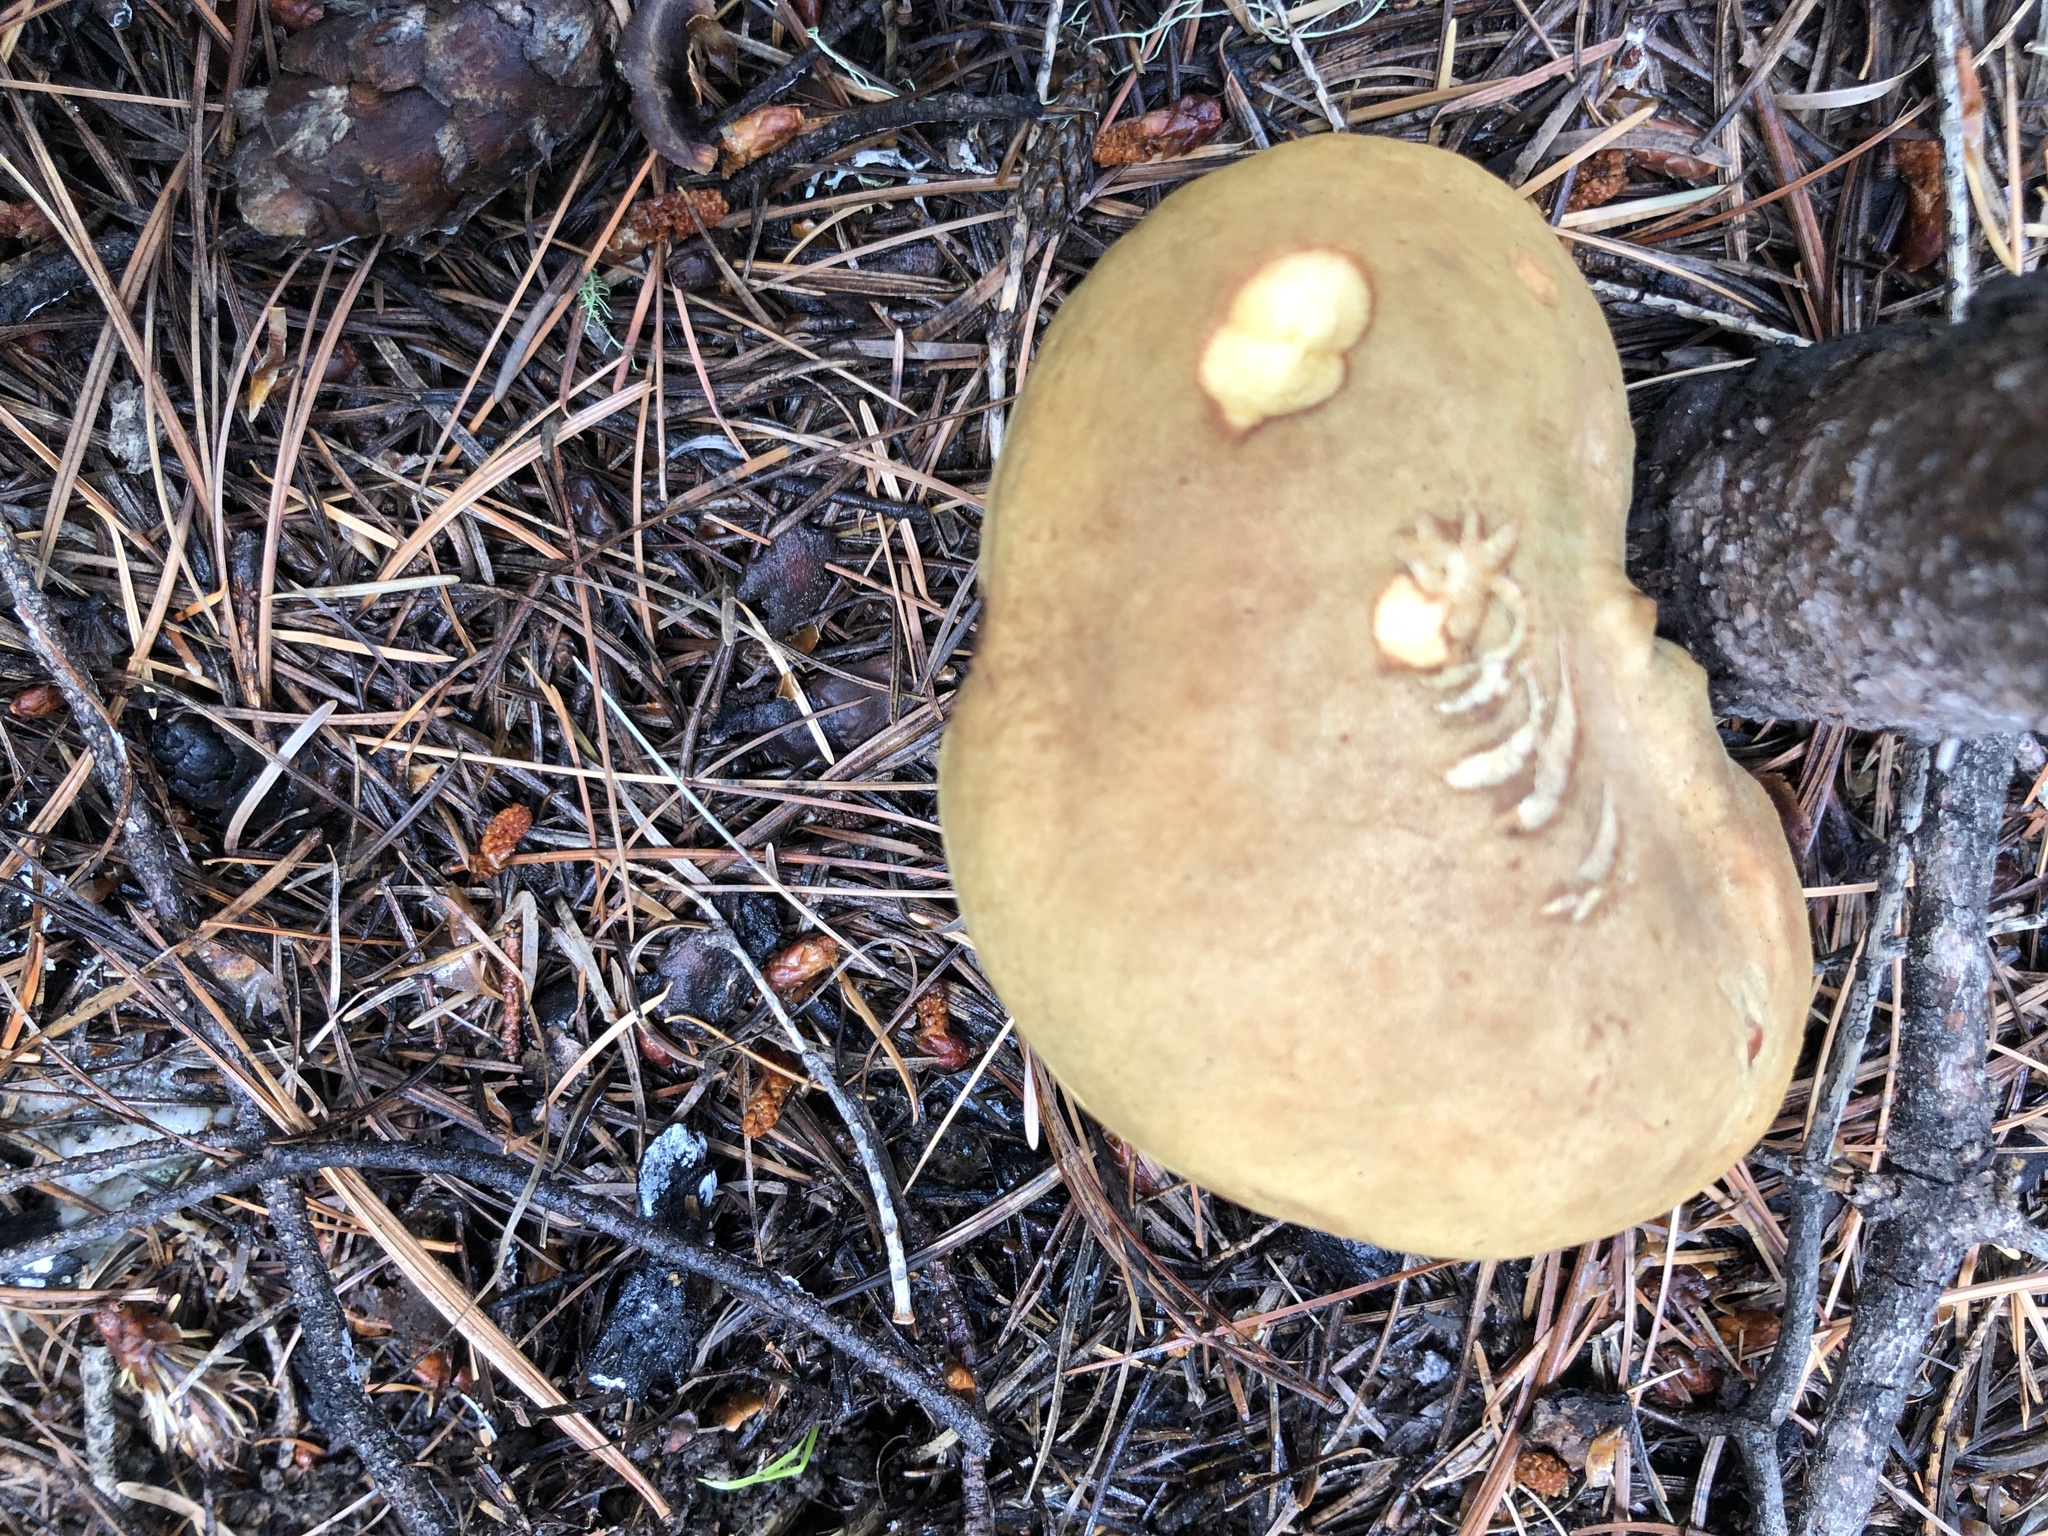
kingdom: Fungi
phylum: Basidiomycota
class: Agaricomycetes
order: Boletales
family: Boletaceae
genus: Xerocomus
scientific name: Xerocomus ferrugineus
